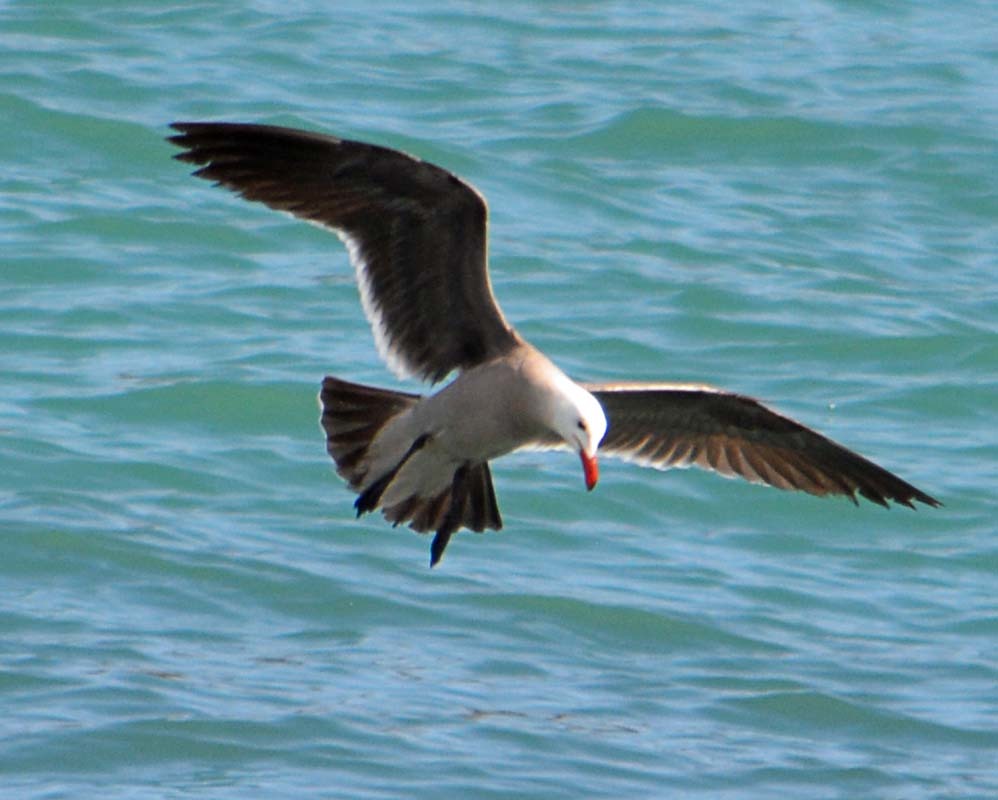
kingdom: Animalia
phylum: Chordata
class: Aves
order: Charadriiformes
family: Laridae
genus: Larus
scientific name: Larus heermanni
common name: Heermann's gull
